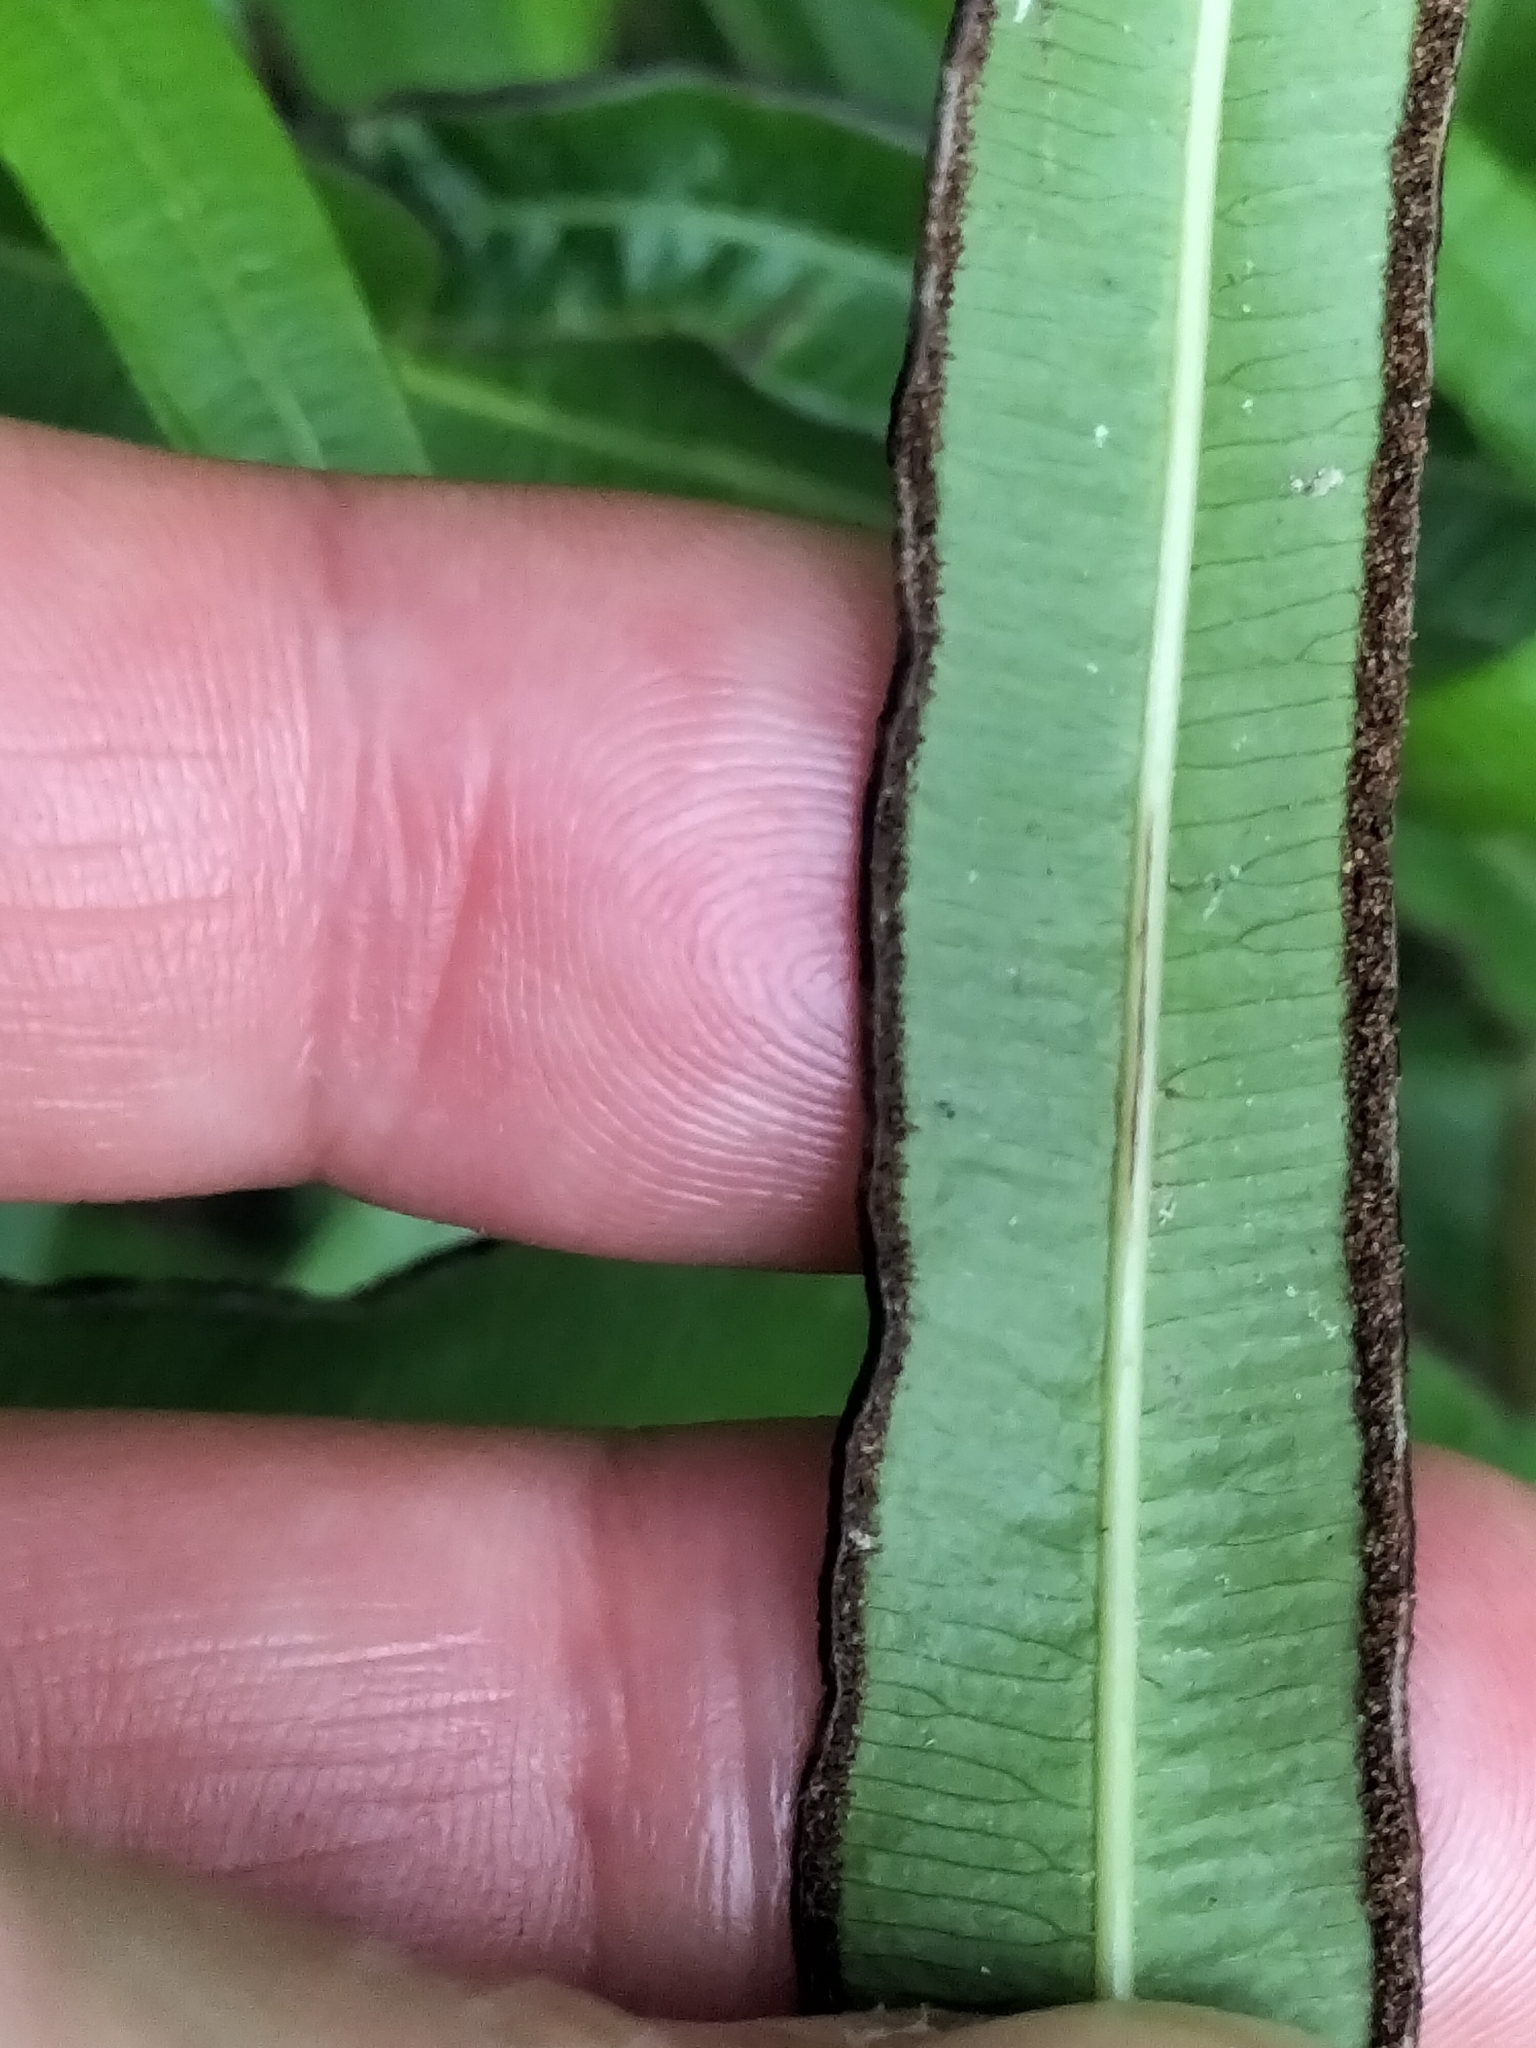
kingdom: Plantae
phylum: Tracheophyta
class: Polypodiopsida
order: Polypodiales
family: Pteridaceae
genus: Pteris
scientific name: Pteris cretica
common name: Ribbon fern
